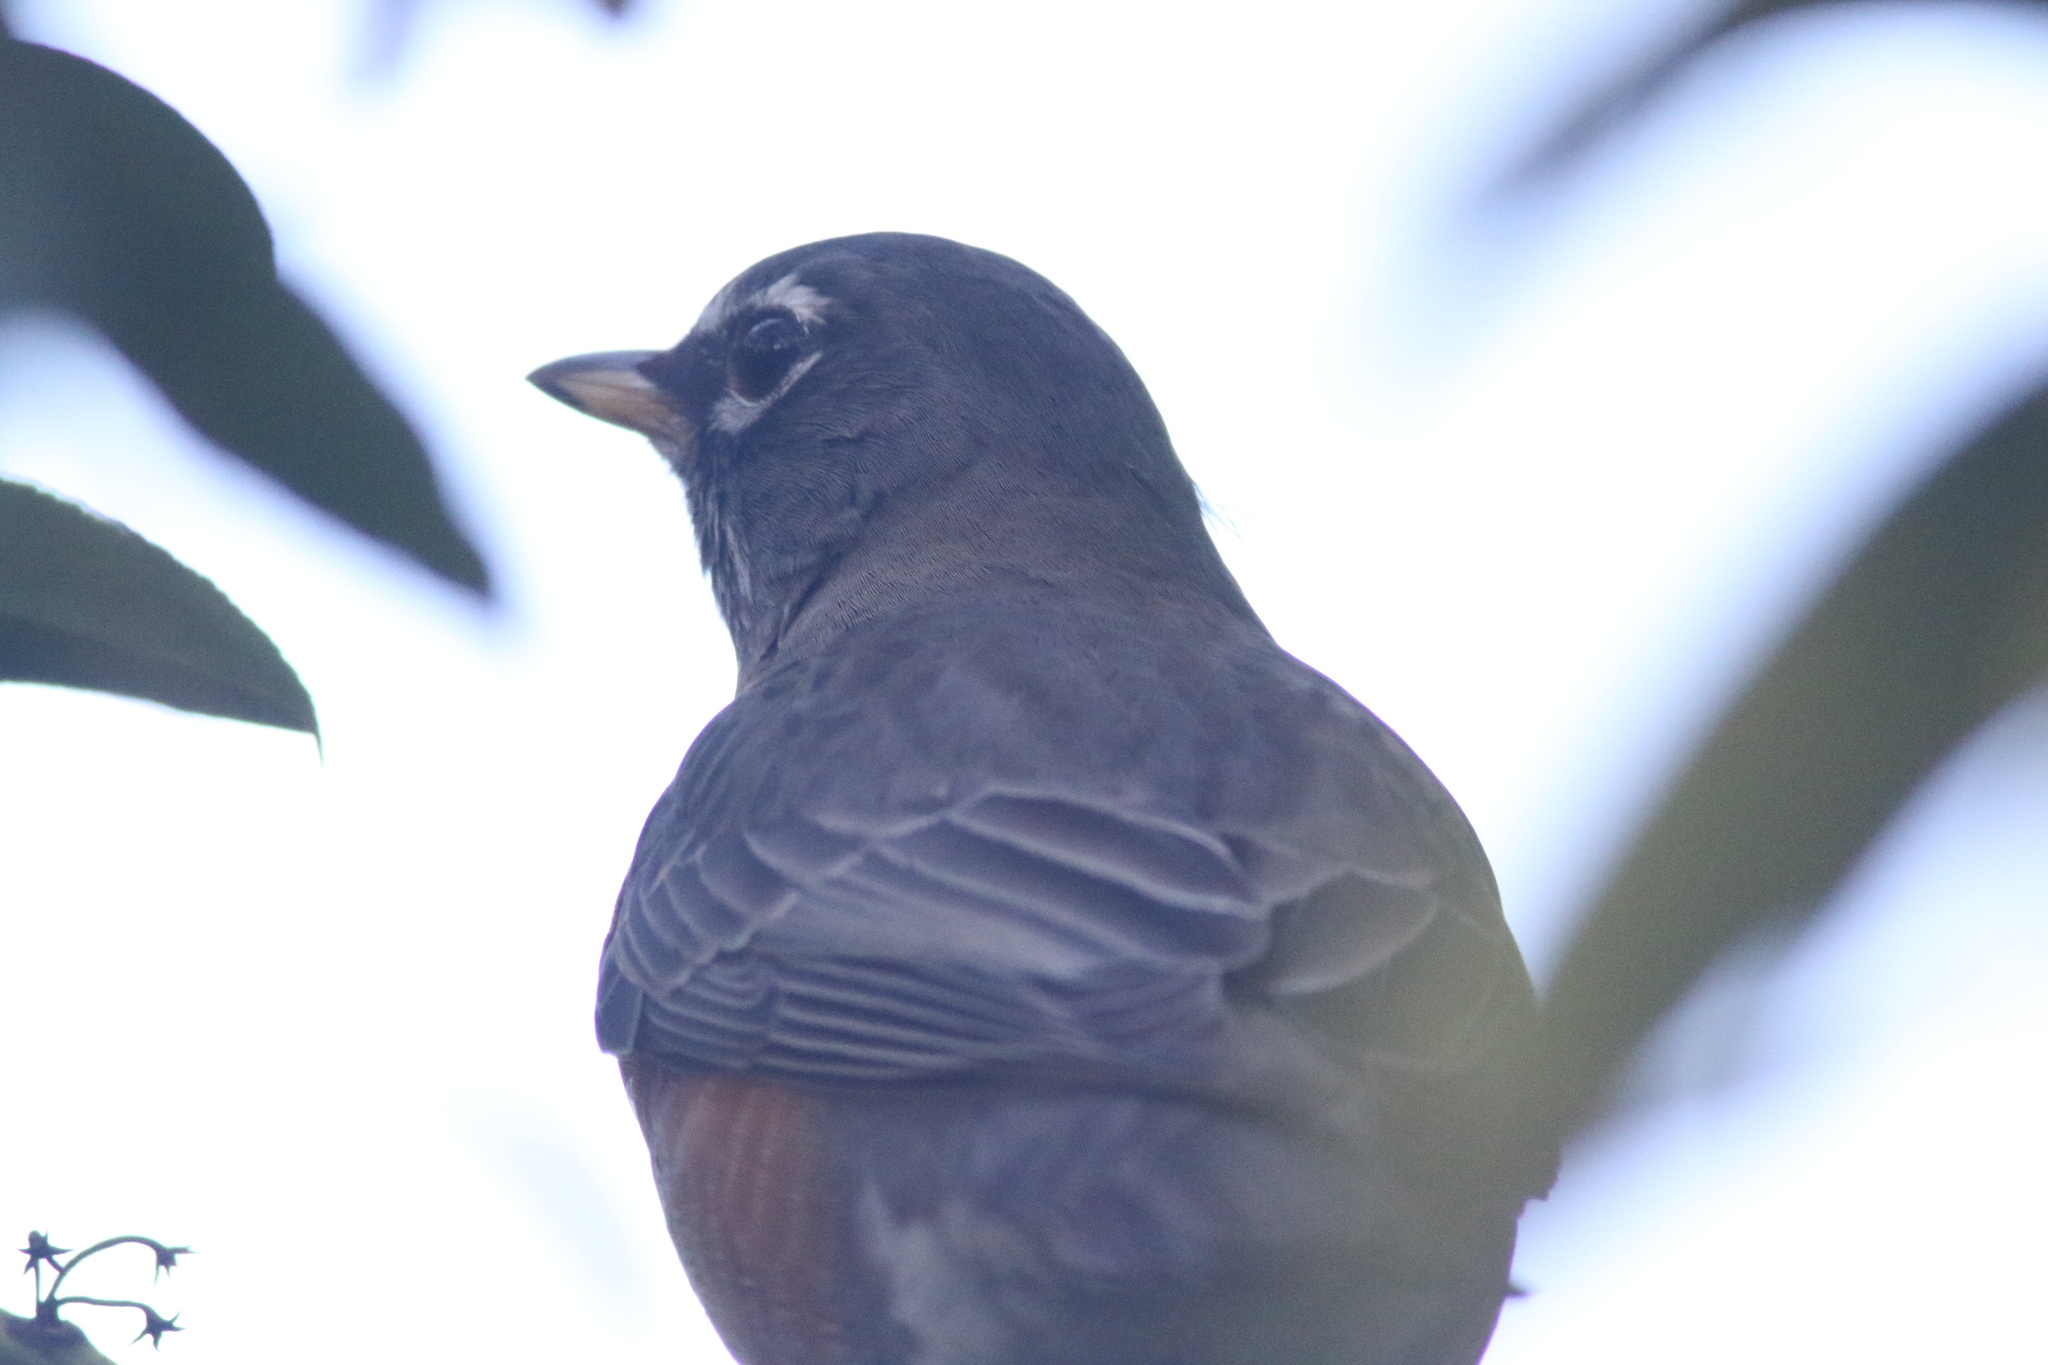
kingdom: Animalia
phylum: Chordata
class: Aves
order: Passeriformes
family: Turdidae
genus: Turdus
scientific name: Turdus migratorius
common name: American robin
